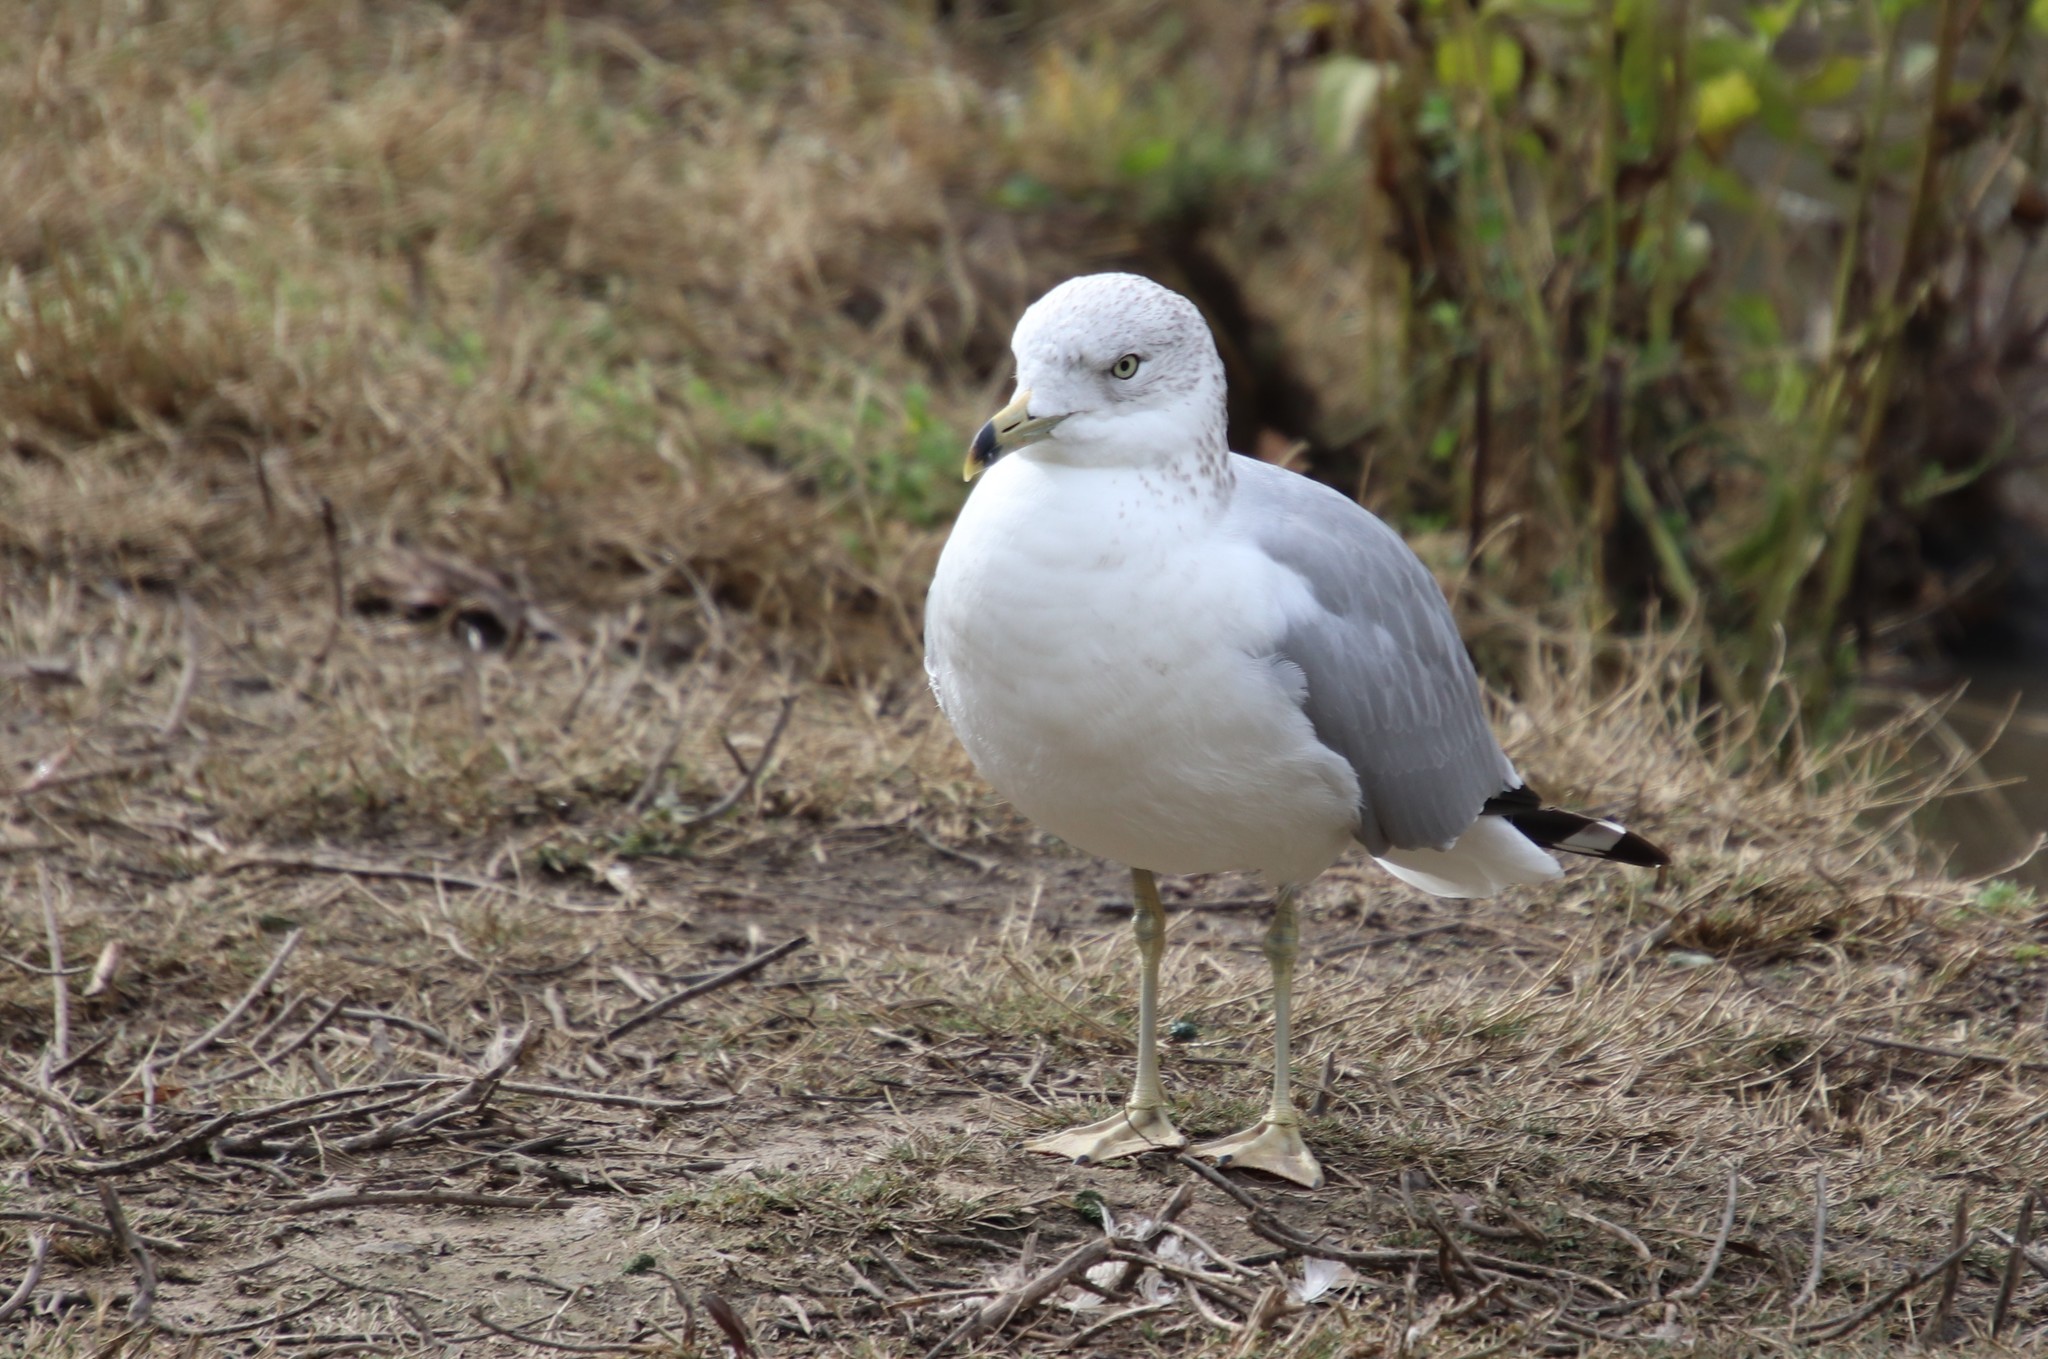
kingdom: Animalia
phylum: Chordata
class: Aves
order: Charadriiformes
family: Laridae
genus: Larus
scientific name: Larus delawarensis
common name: Ring-billed gull
